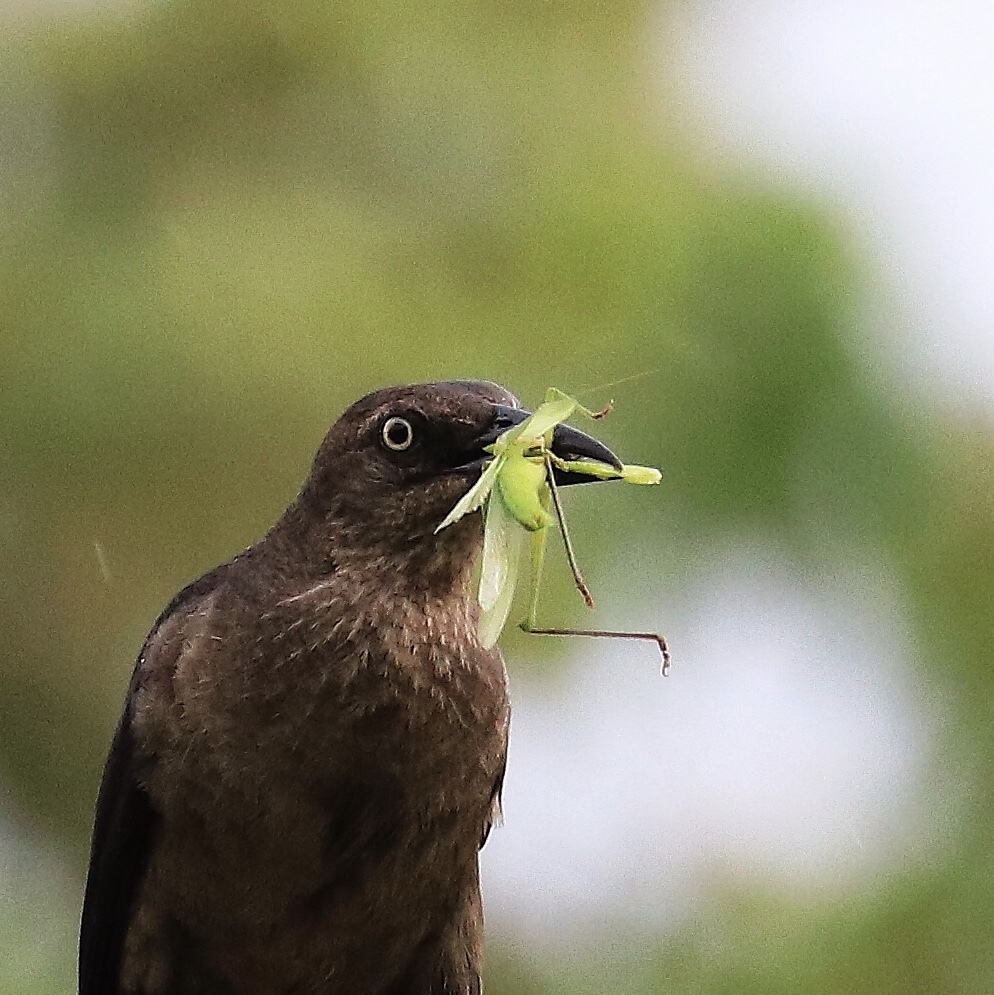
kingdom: Animalia
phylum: Chordata
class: Aves
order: Passeriformes
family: Icteridae
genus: Quiscalus
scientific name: Quiscalus mexicanus
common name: Great-tailed grackle
